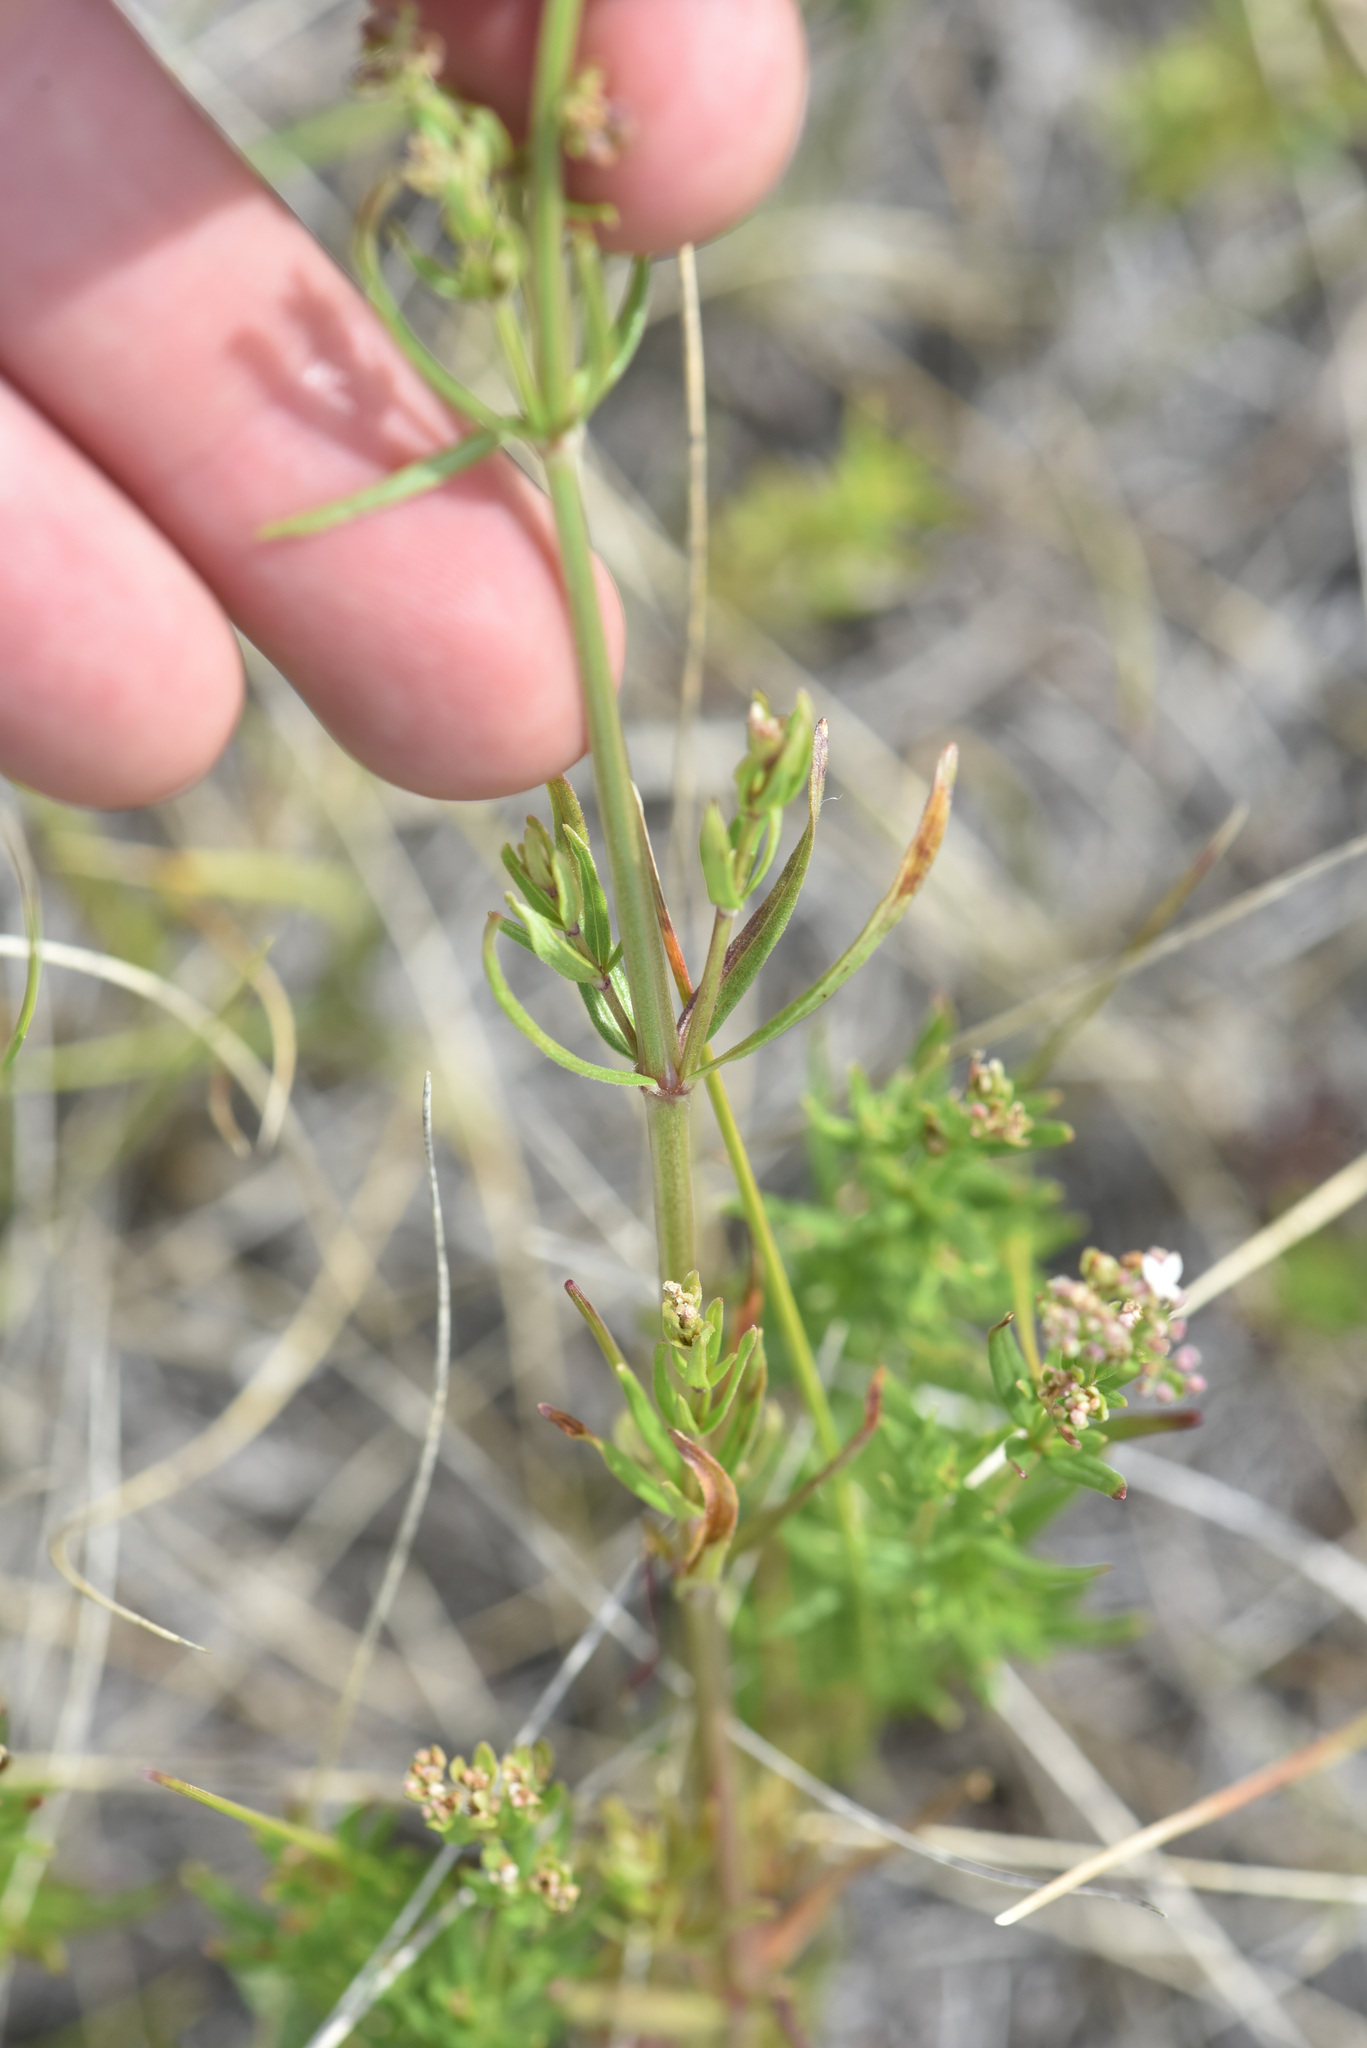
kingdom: Plantae
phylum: Tracheophyta
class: Magnoliopsida
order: Gentianales
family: Rubiaceae
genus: Galium
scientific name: Galium boreale
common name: Northern bedstraw
